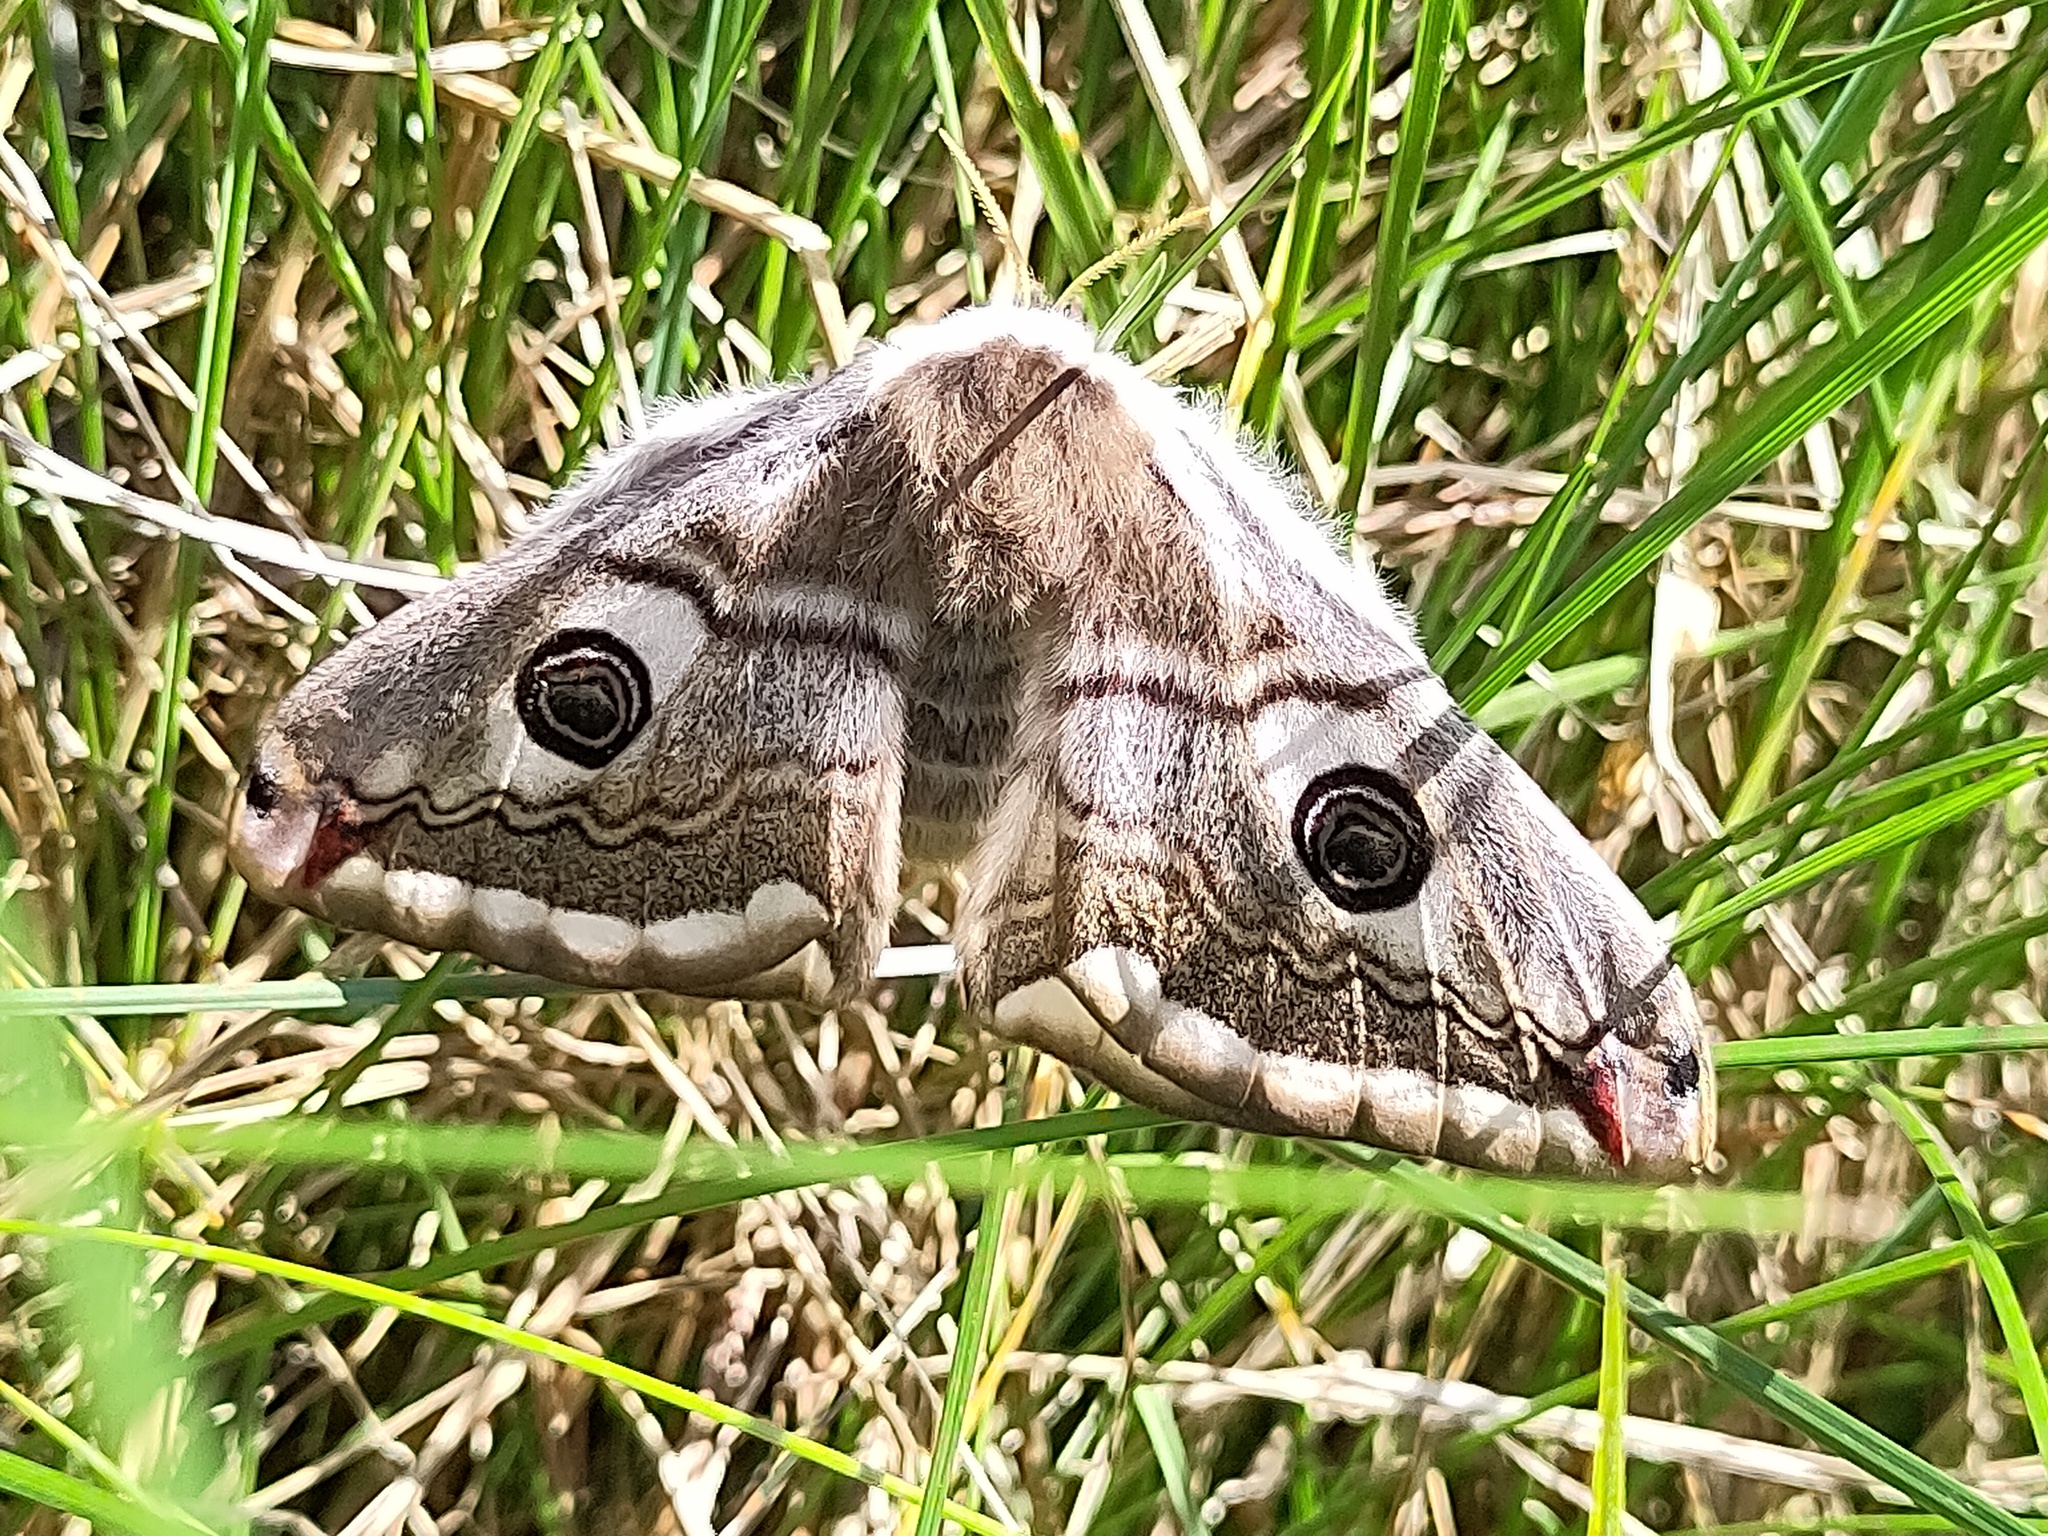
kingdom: Animalia
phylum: Arthropoda
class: Insecta
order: Lepidoptera
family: Saturniidae
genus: Saturnia
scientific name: Saturnia pavoniella
